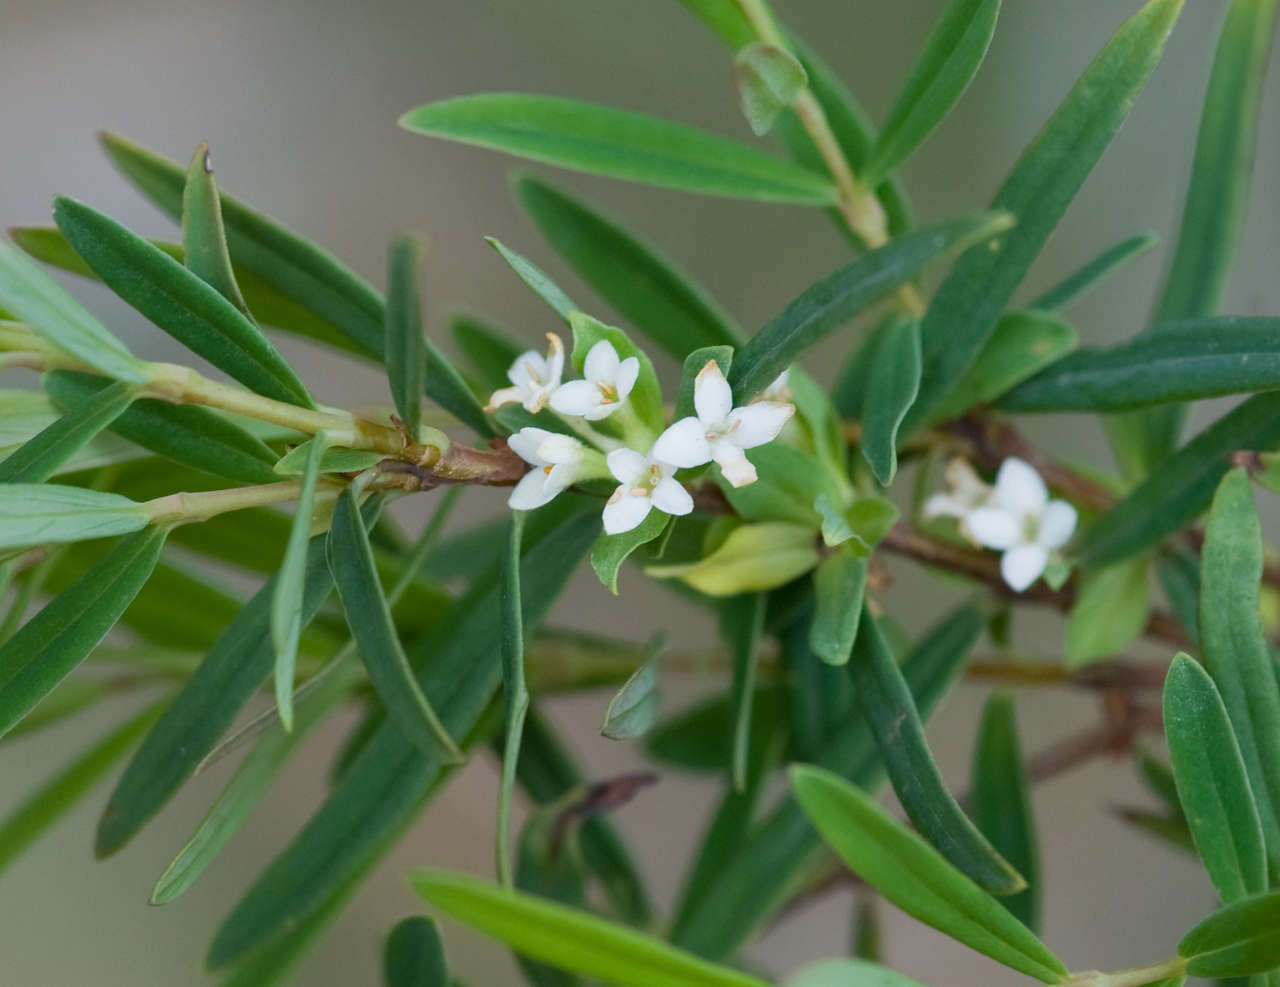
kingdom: Plantae
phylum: Tracheophyta
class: Magnoliopsida
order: Malvales
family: Thymelaeaceae
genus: Pimelea
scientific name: Pimelea axiflora
